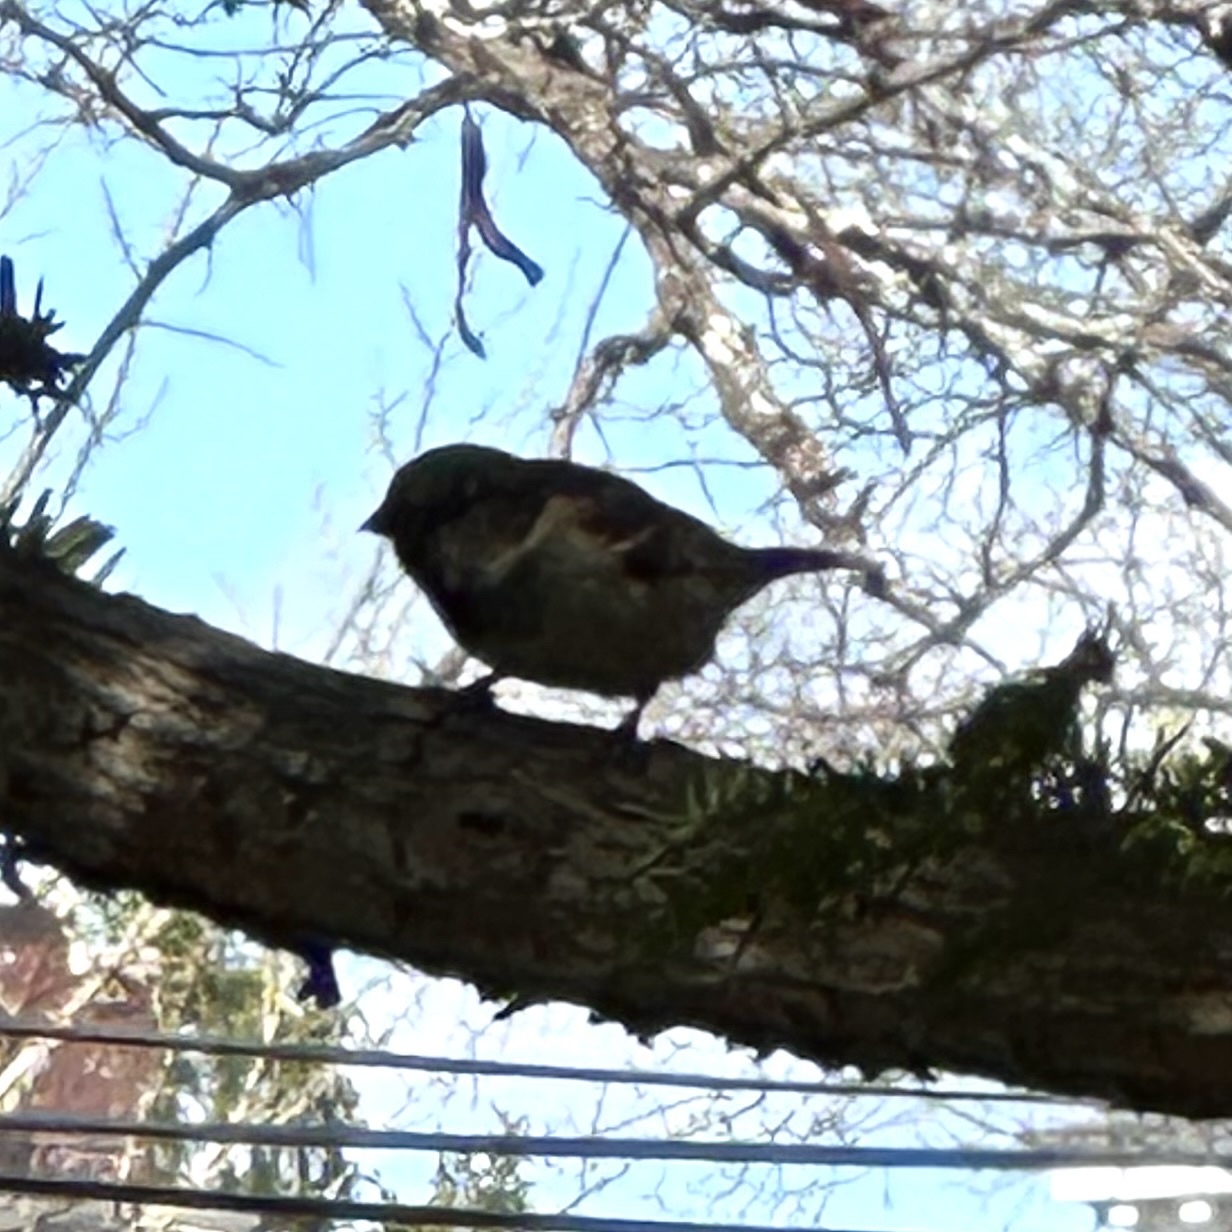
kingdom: Animalia
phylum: Chordata
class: Aves
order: Passeriformes
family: Passeridae
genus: Passer
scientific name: Passer domesticus
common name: House sparrow
